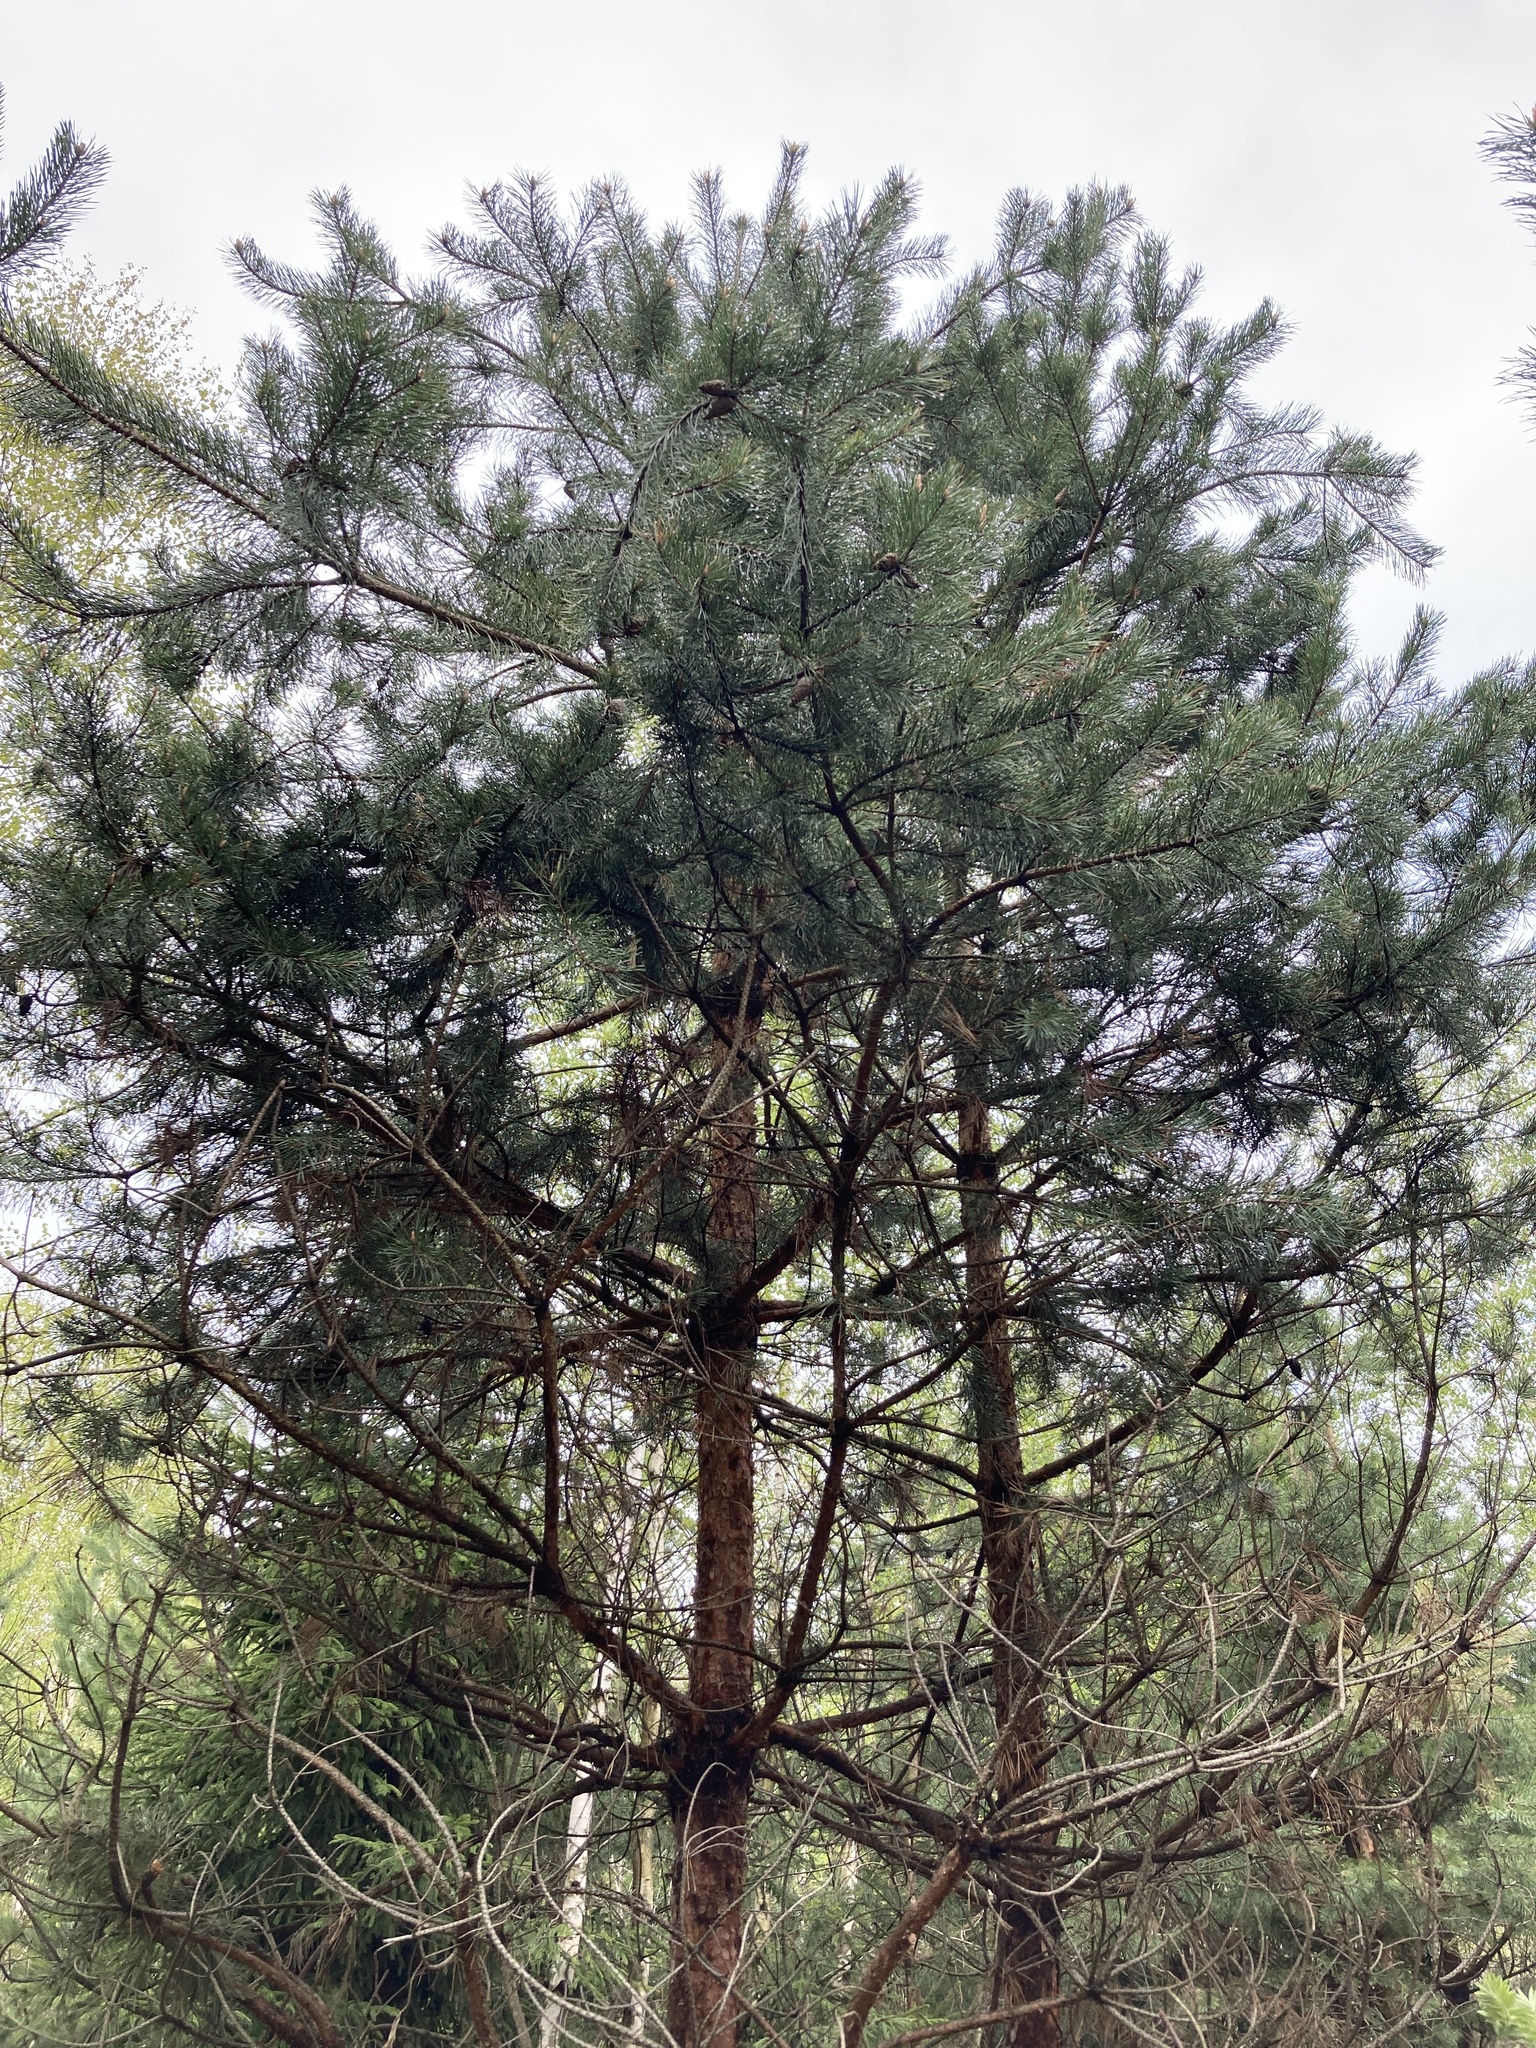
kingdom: Plantae
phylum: Tracheophyta
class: Pinopsida
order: Pinales
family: Pinaceae
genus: Pinus
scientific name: Pinus sylvestris
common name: Scots pine
